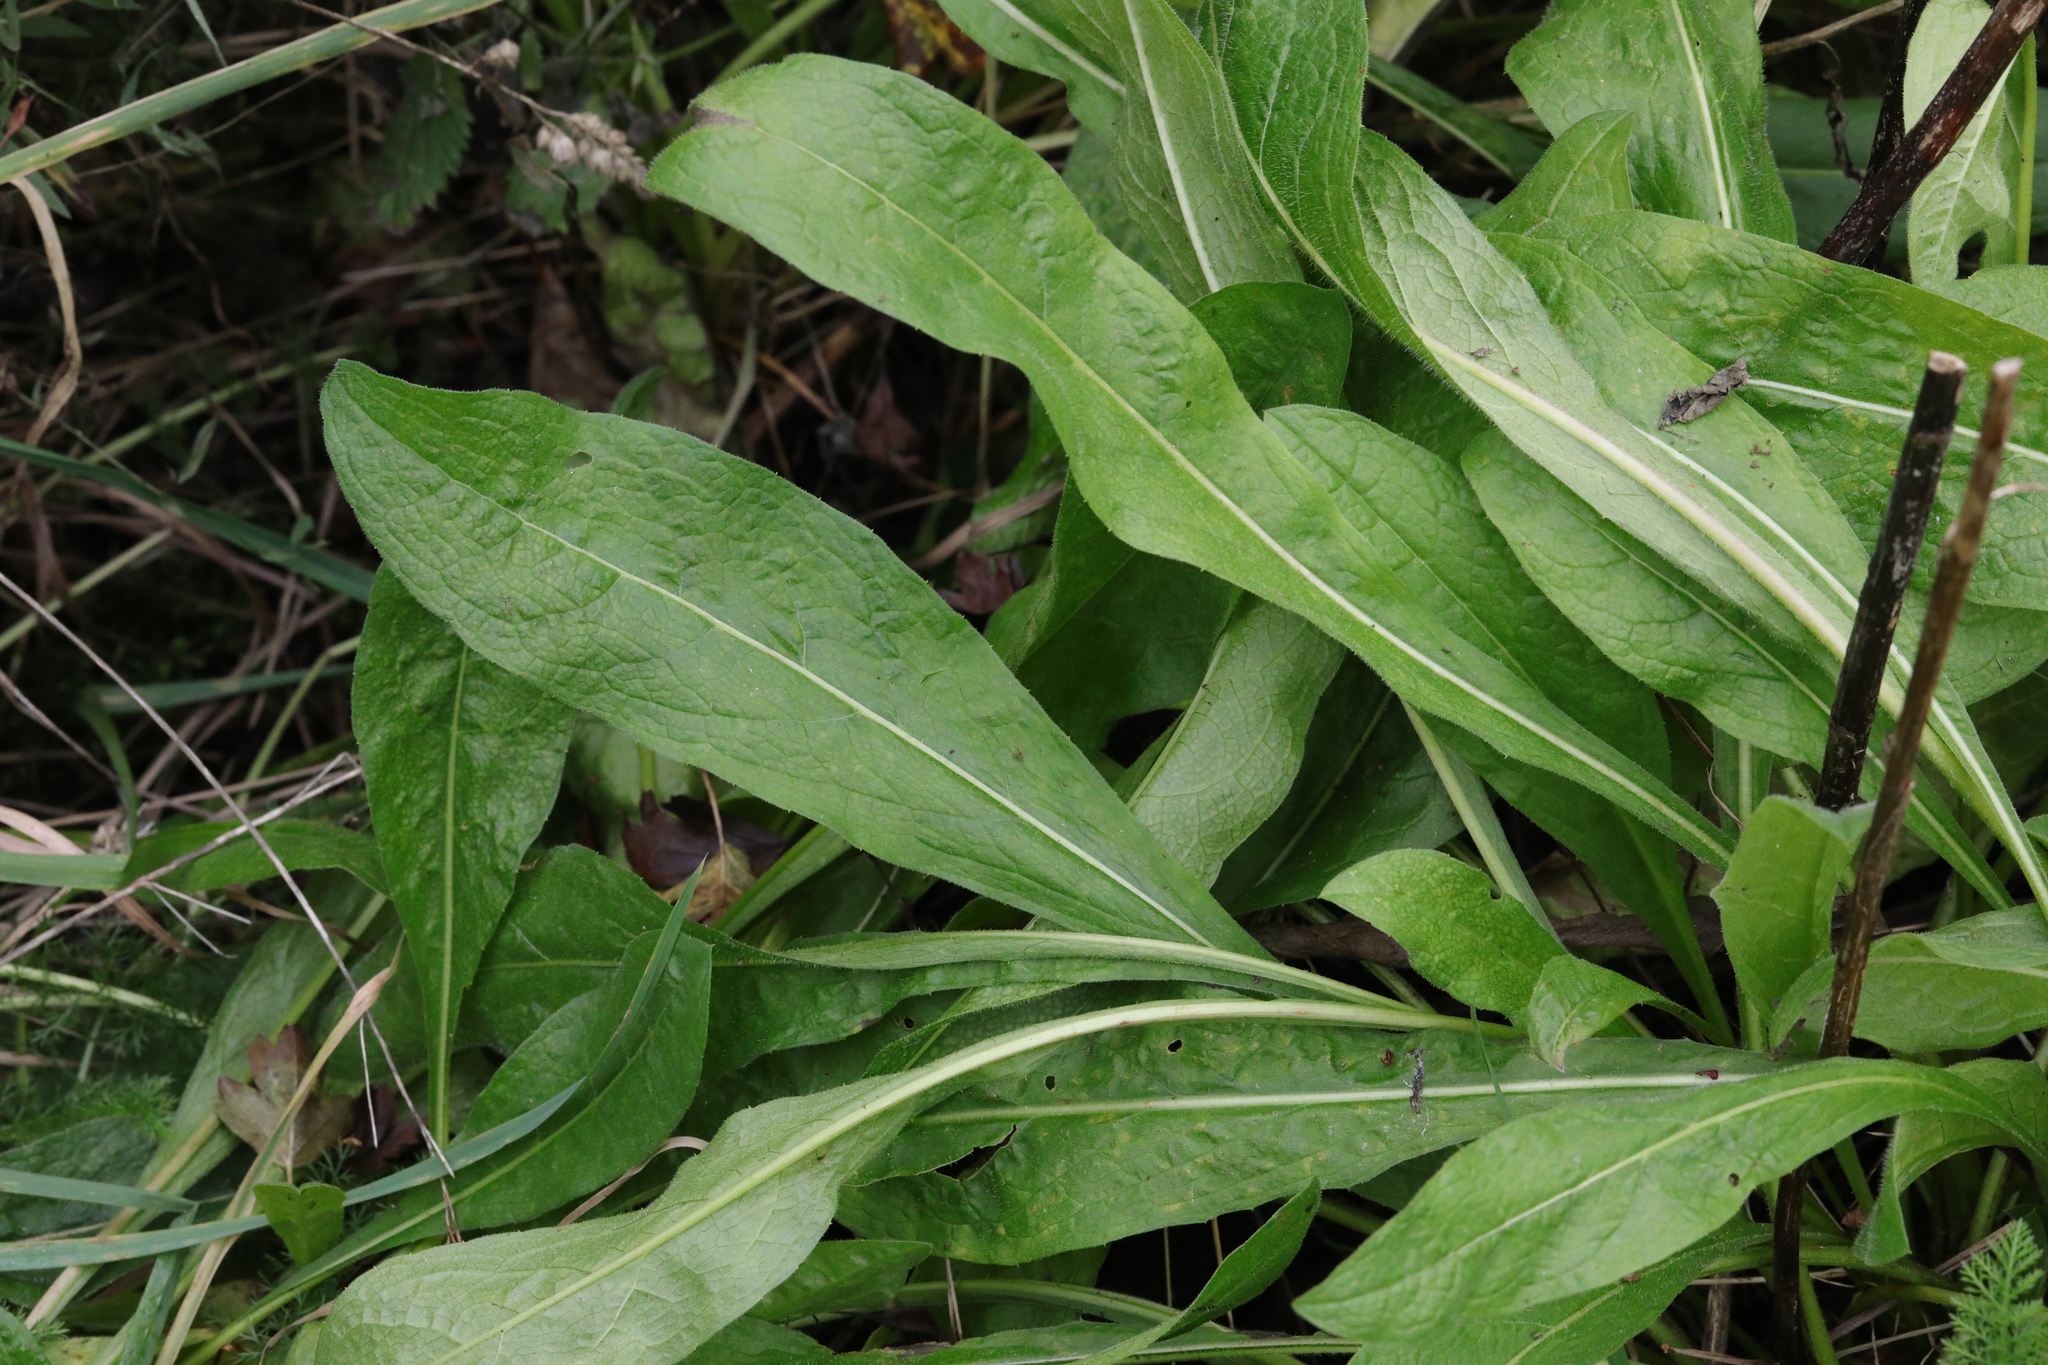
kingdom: Plantae
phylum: Tracheophyta
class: Magnoliopsida
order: Asterales
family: Asteraceae
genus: Centaurea
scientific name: Centaurea nigra
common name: Lesser knapweed
